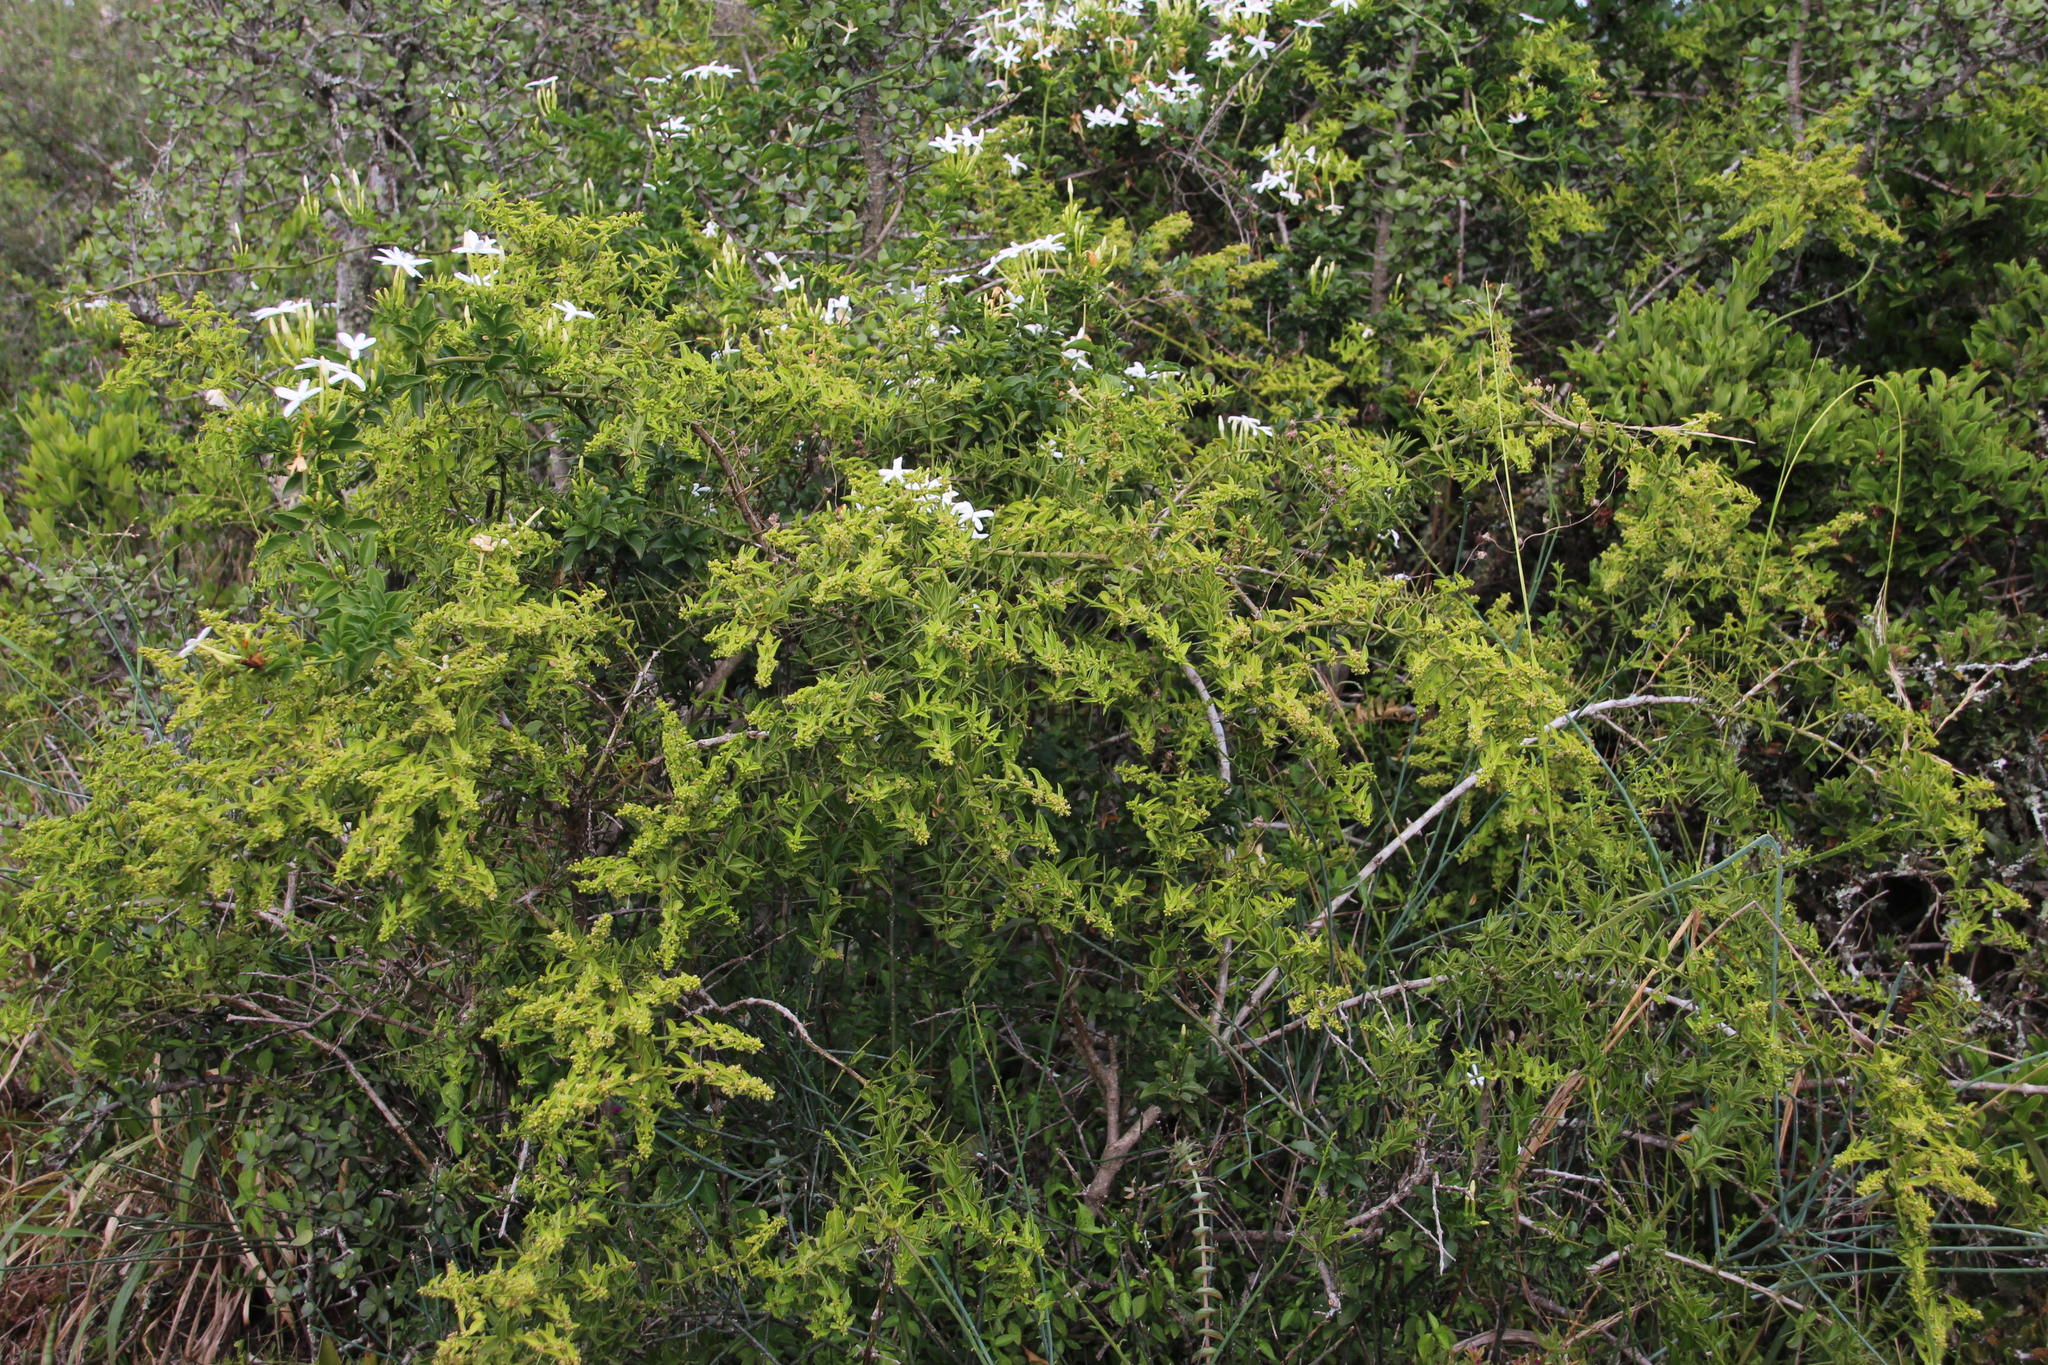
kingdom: Plantae
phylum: Tracheophyta
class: Magnoliopsida
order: Brassicales
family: Salvadoraceae
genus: Azima
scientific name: Azima tetracantha
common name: Needle bush
